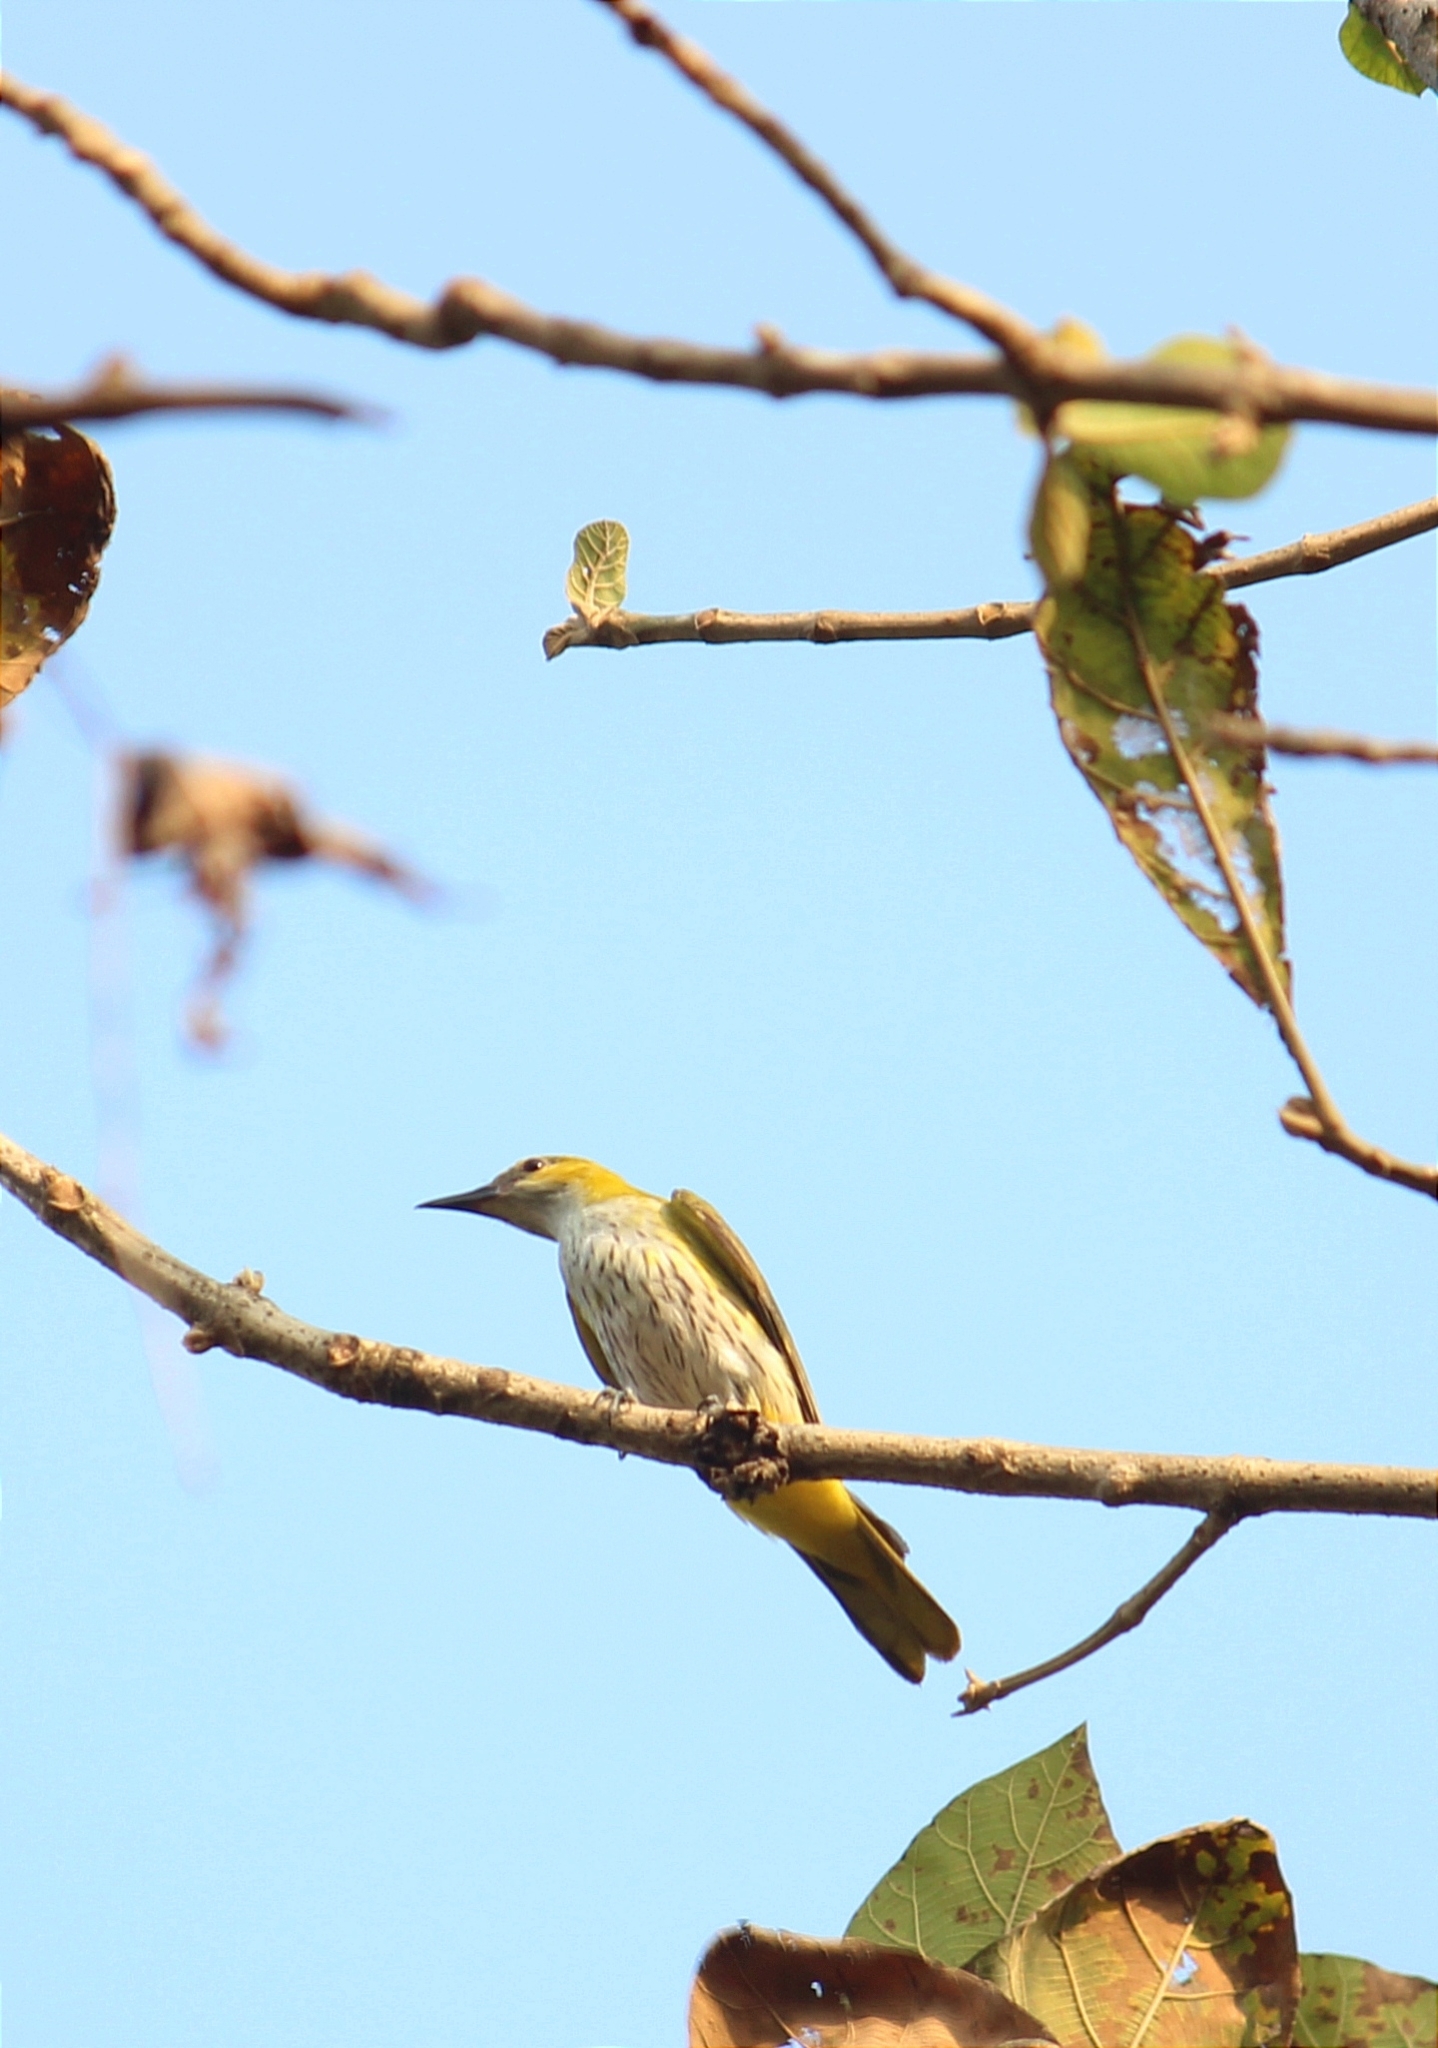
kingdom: Animalia
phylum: Chordata
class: Aves
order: Passeriformes
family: Oriolidae
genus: Oriolus
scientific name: Oriolus kundoo
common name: Indian golden oriole
